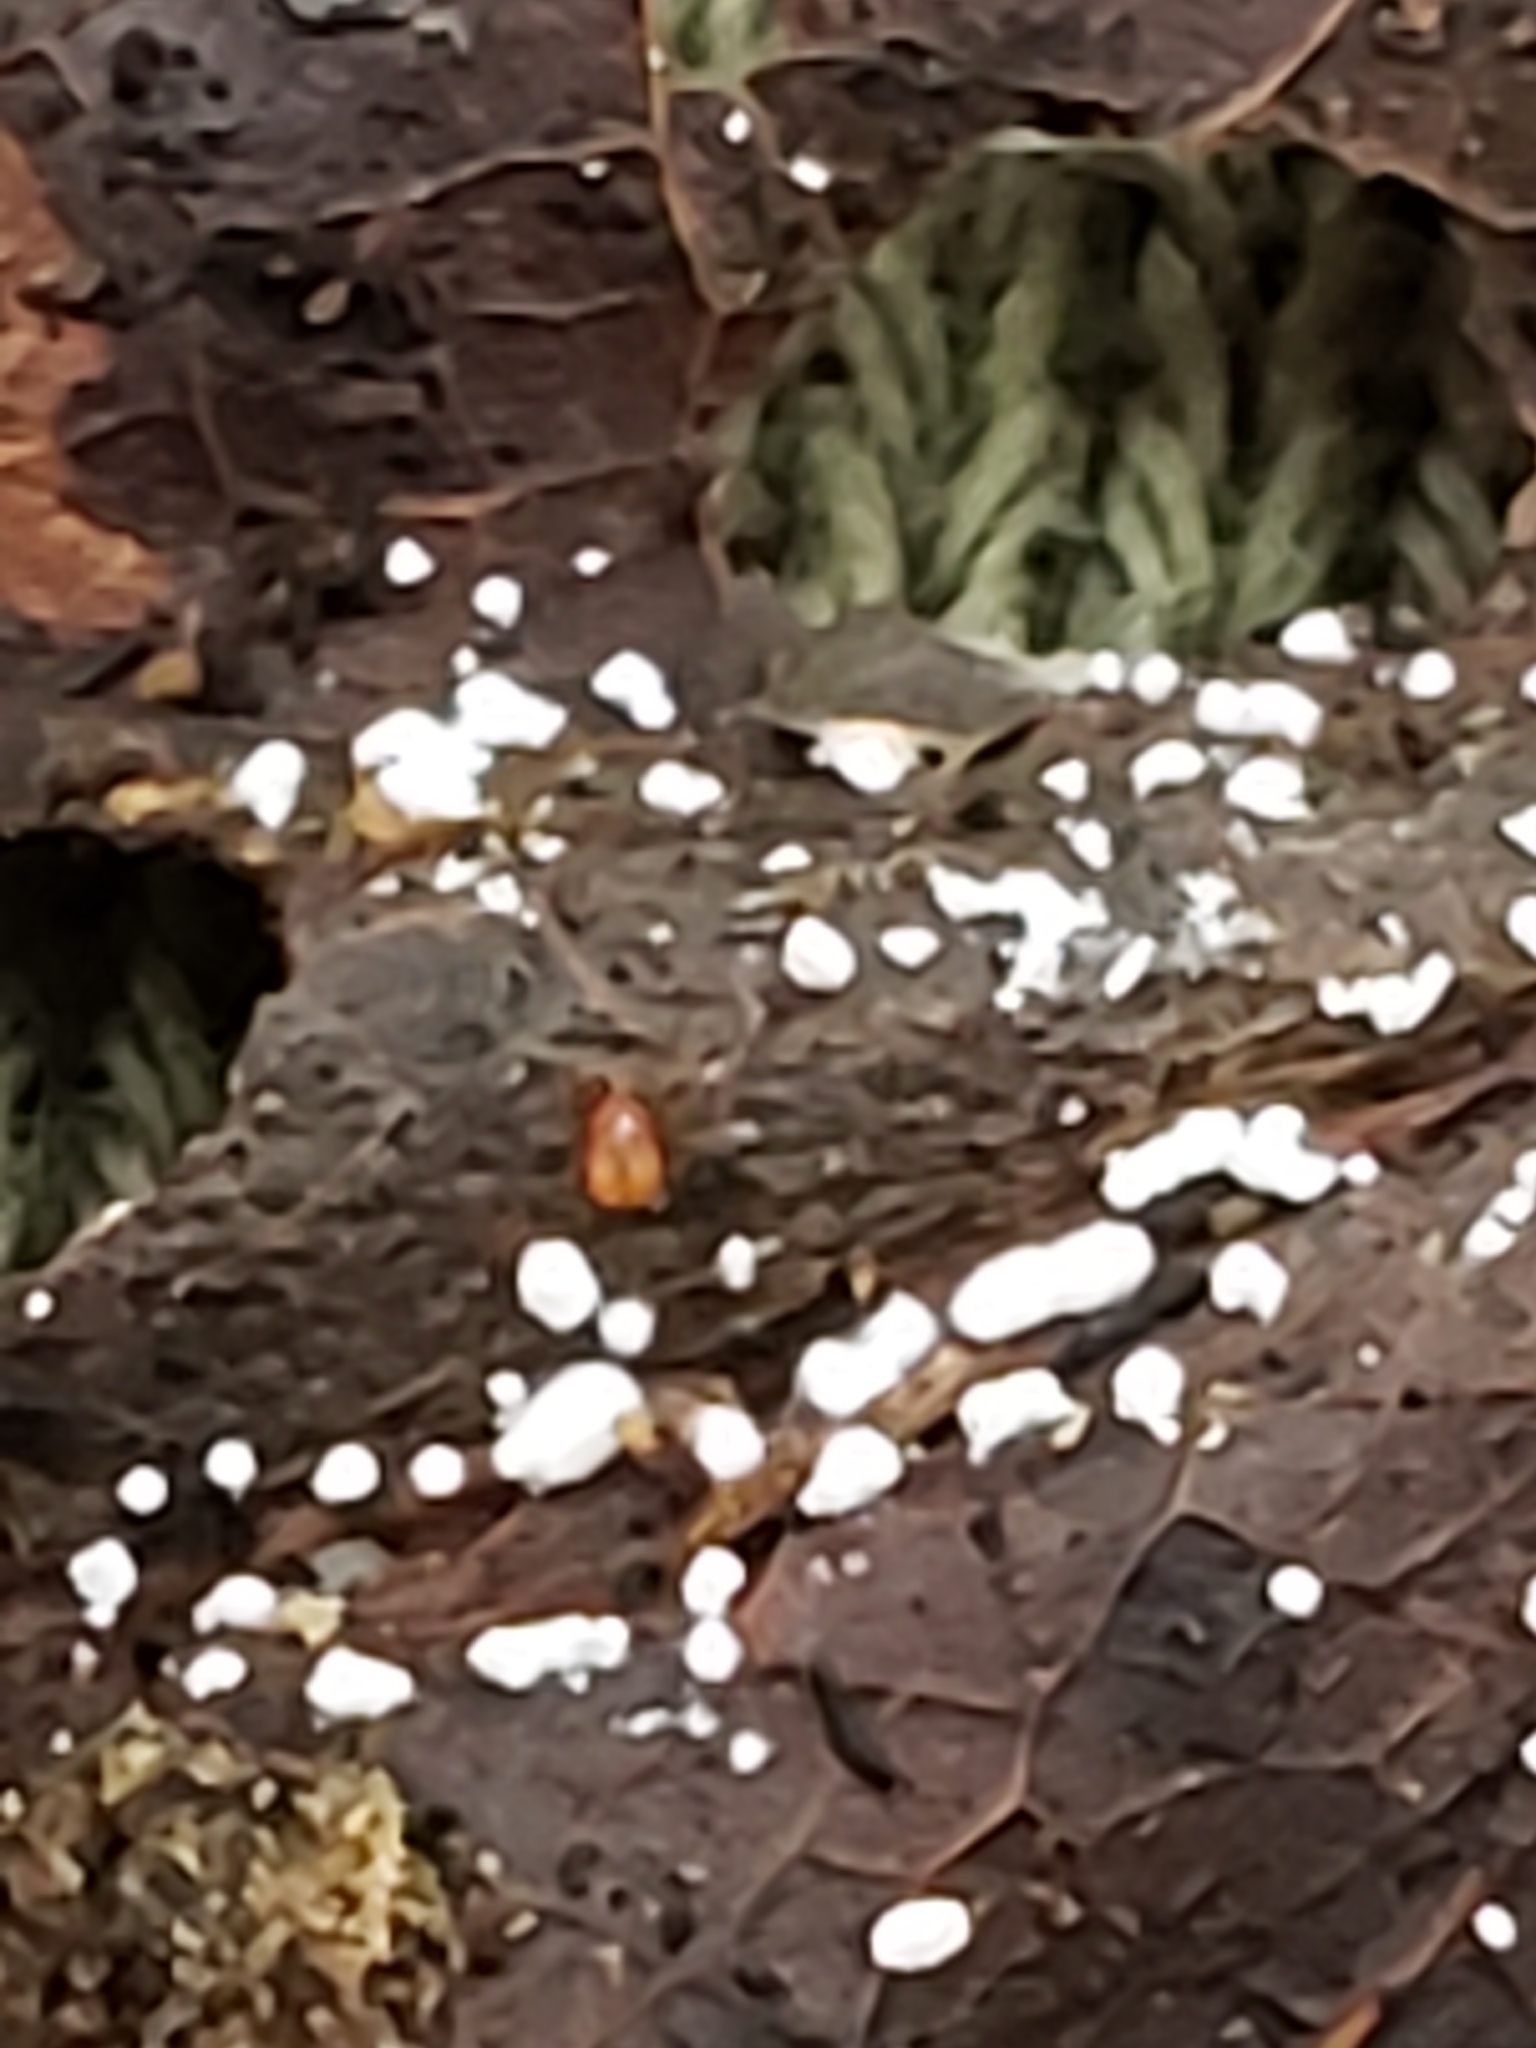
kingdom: Animalia
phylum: Arthropoda
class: Arachnida
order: Mesostigmata
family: Podocinidae
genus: Podocinum
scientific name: Podocinum
